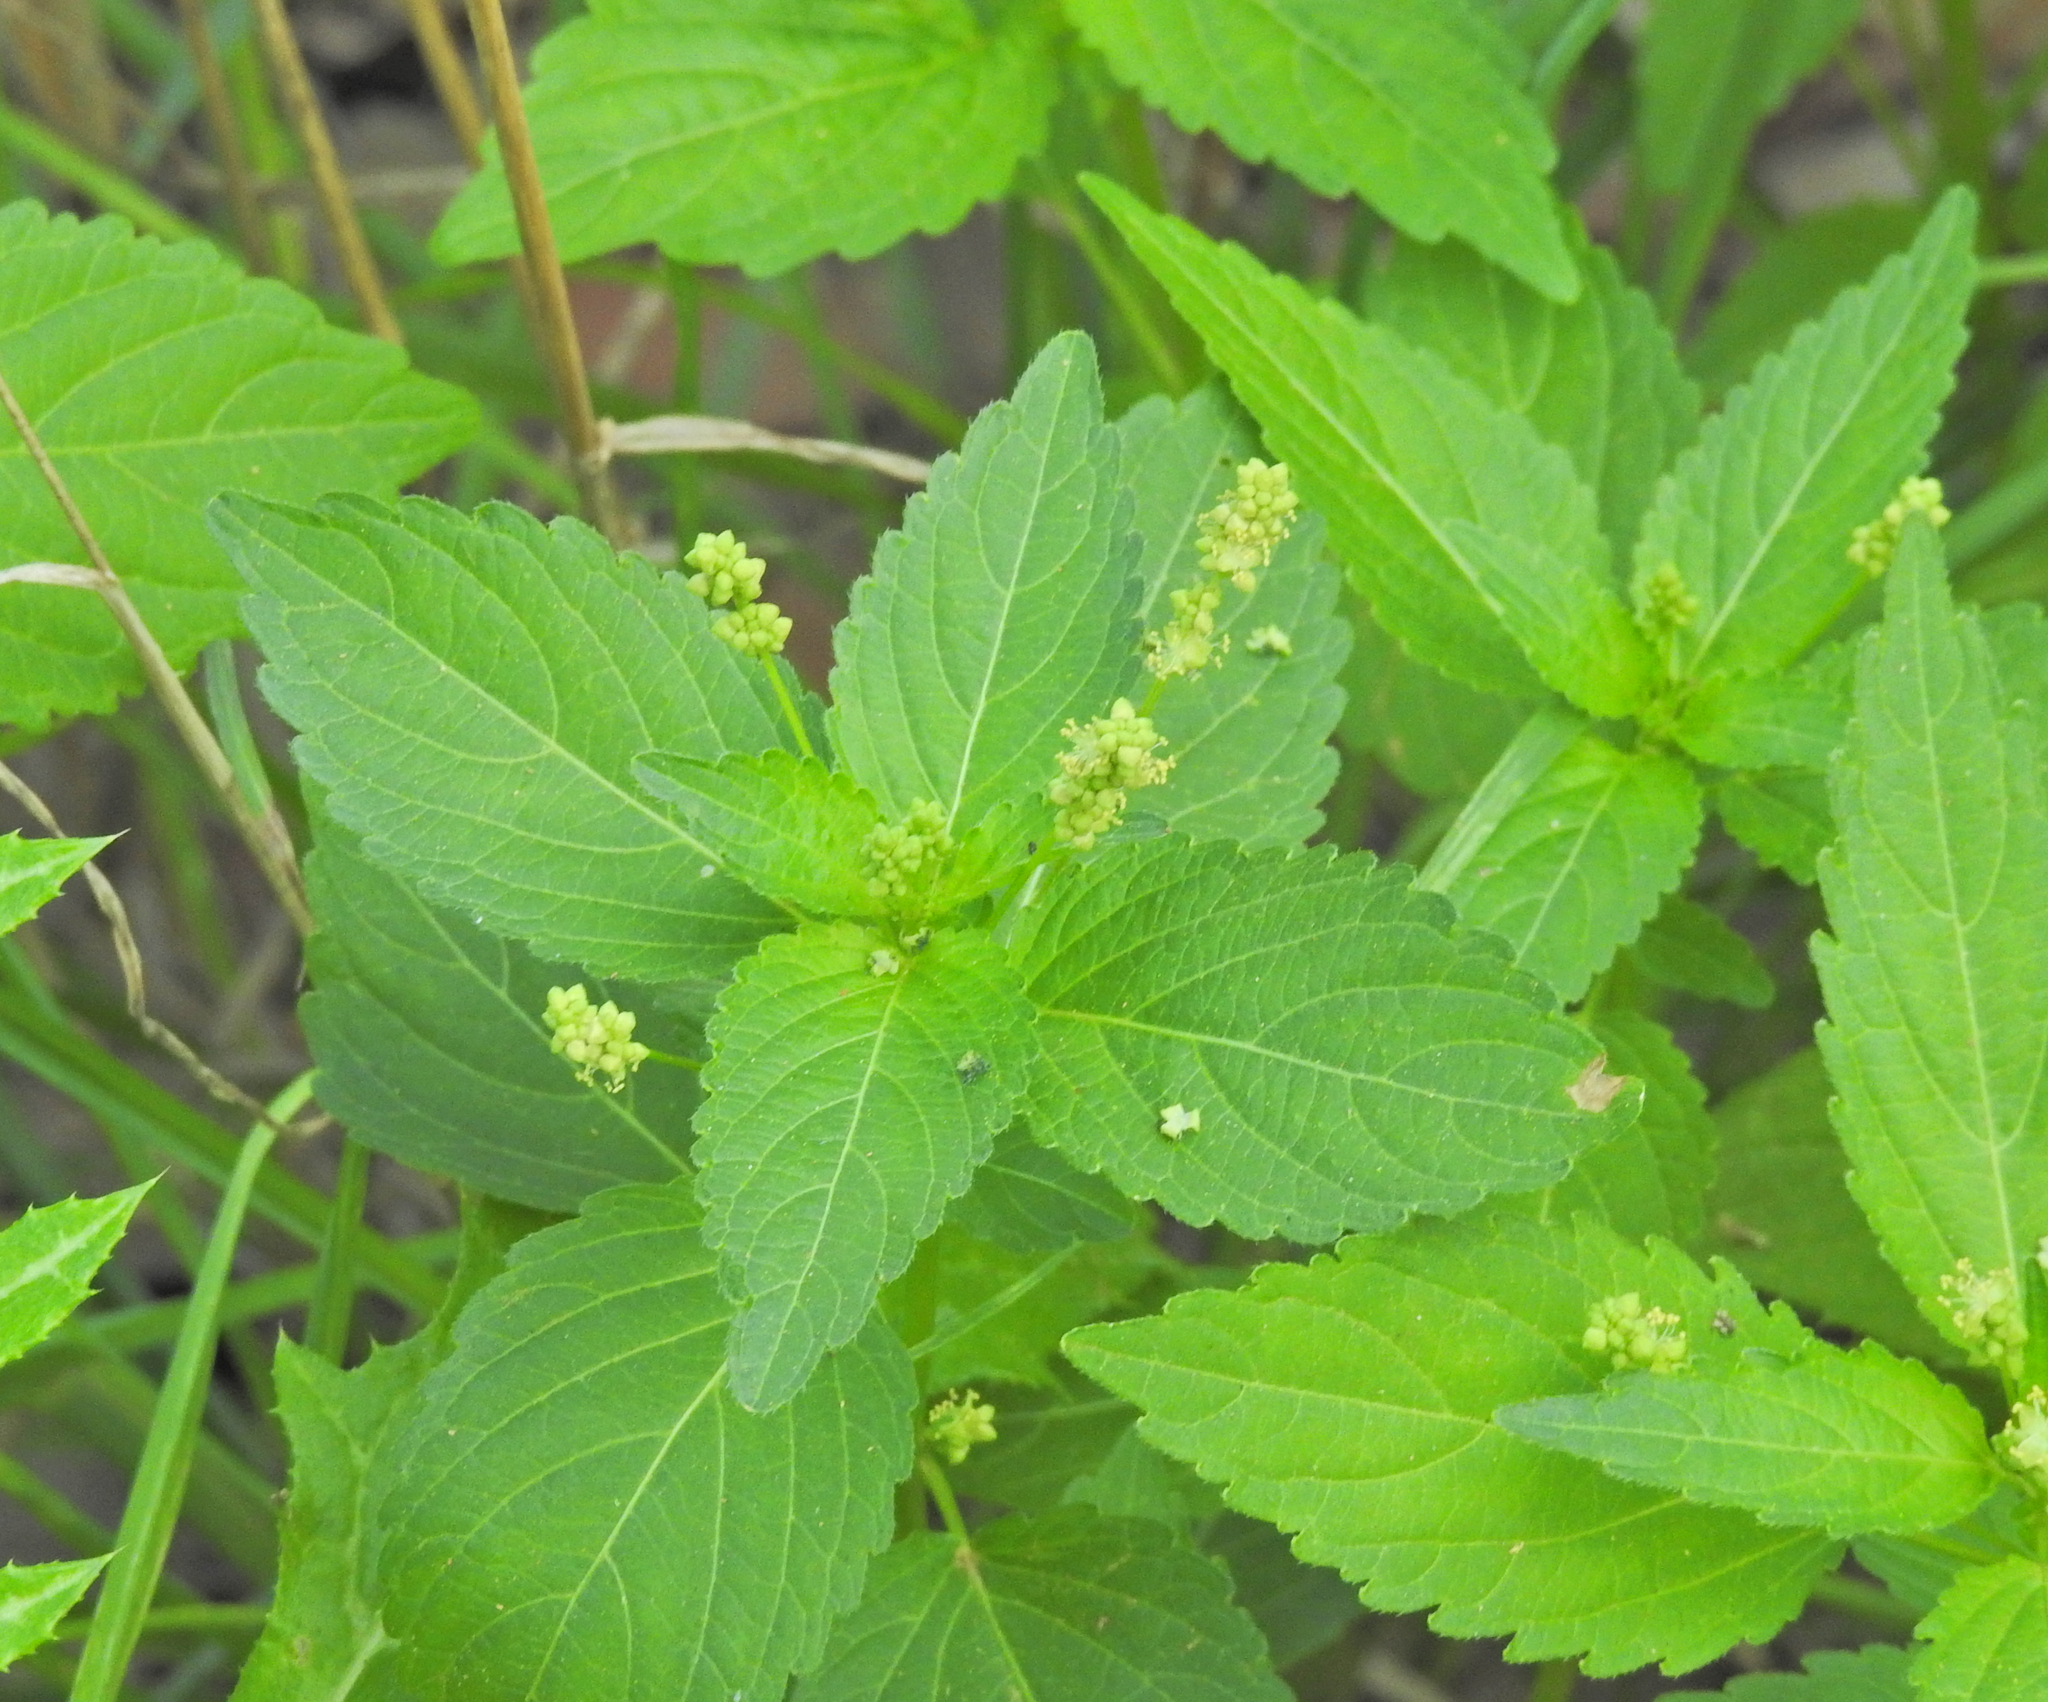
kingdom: Plantae
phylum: Tracheophyta
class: Magnoliopsida
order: Malpighiales
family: Euphorbiaceae
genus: Mercurialis
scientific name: Mercurialis annua
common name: Annual mercury
